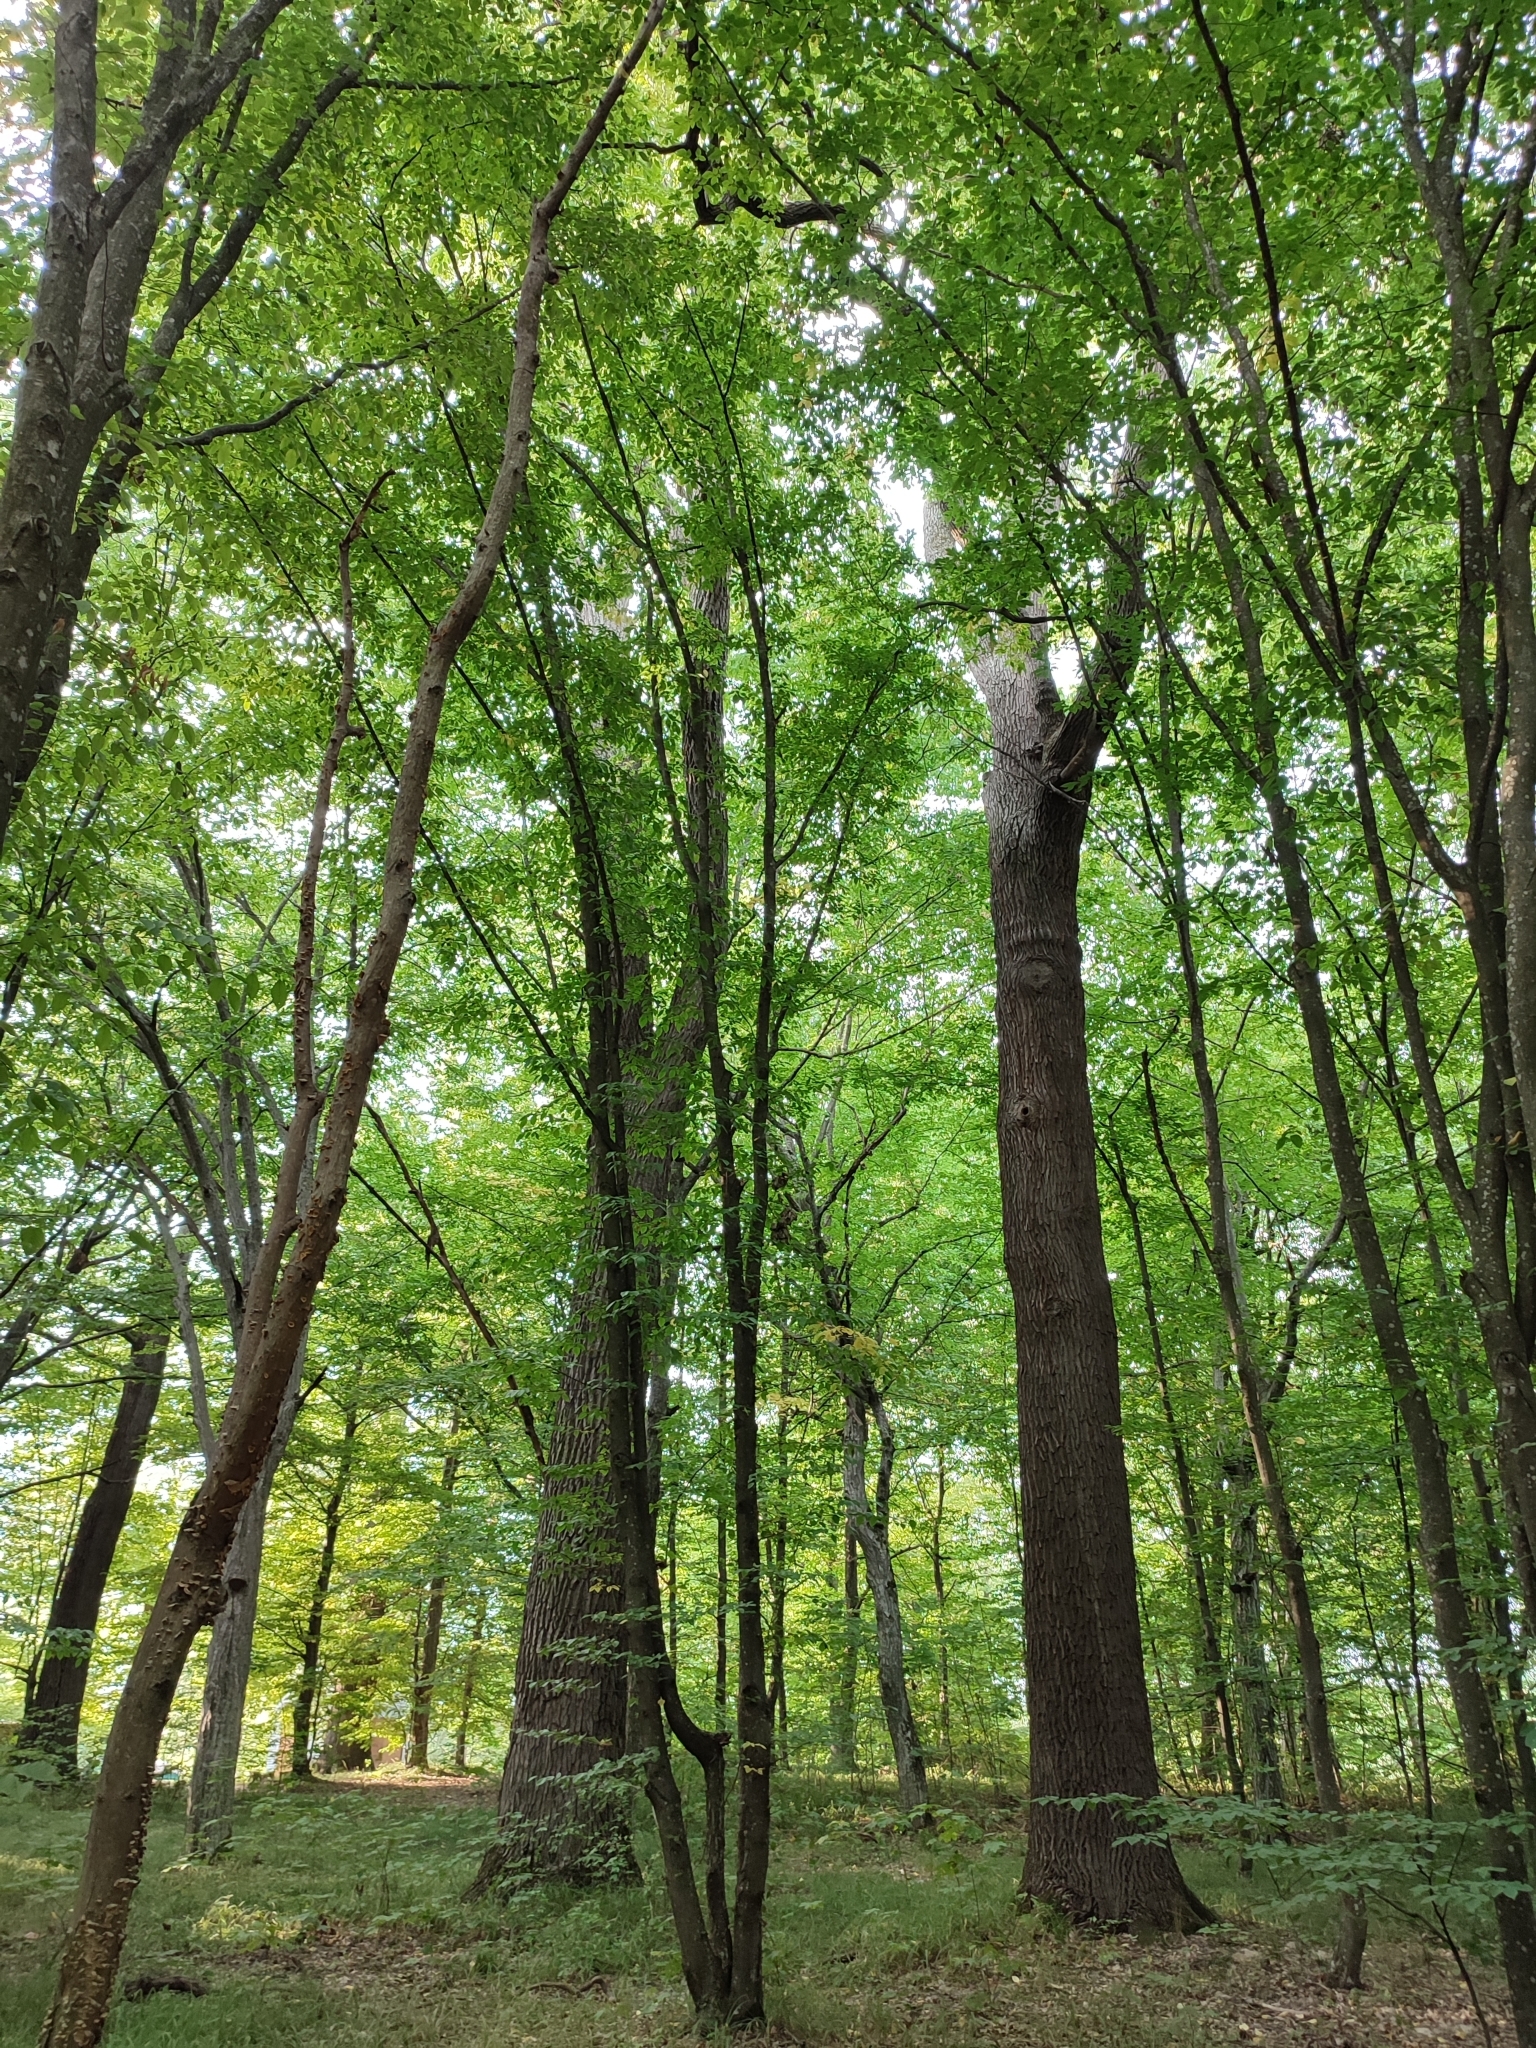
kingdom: Plantae
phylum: Tracheophyta
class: Magnoliopsida
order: Fagales
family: Fagaceae
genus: Quercus
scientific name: Quercus robur
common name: Pedunculate oak
